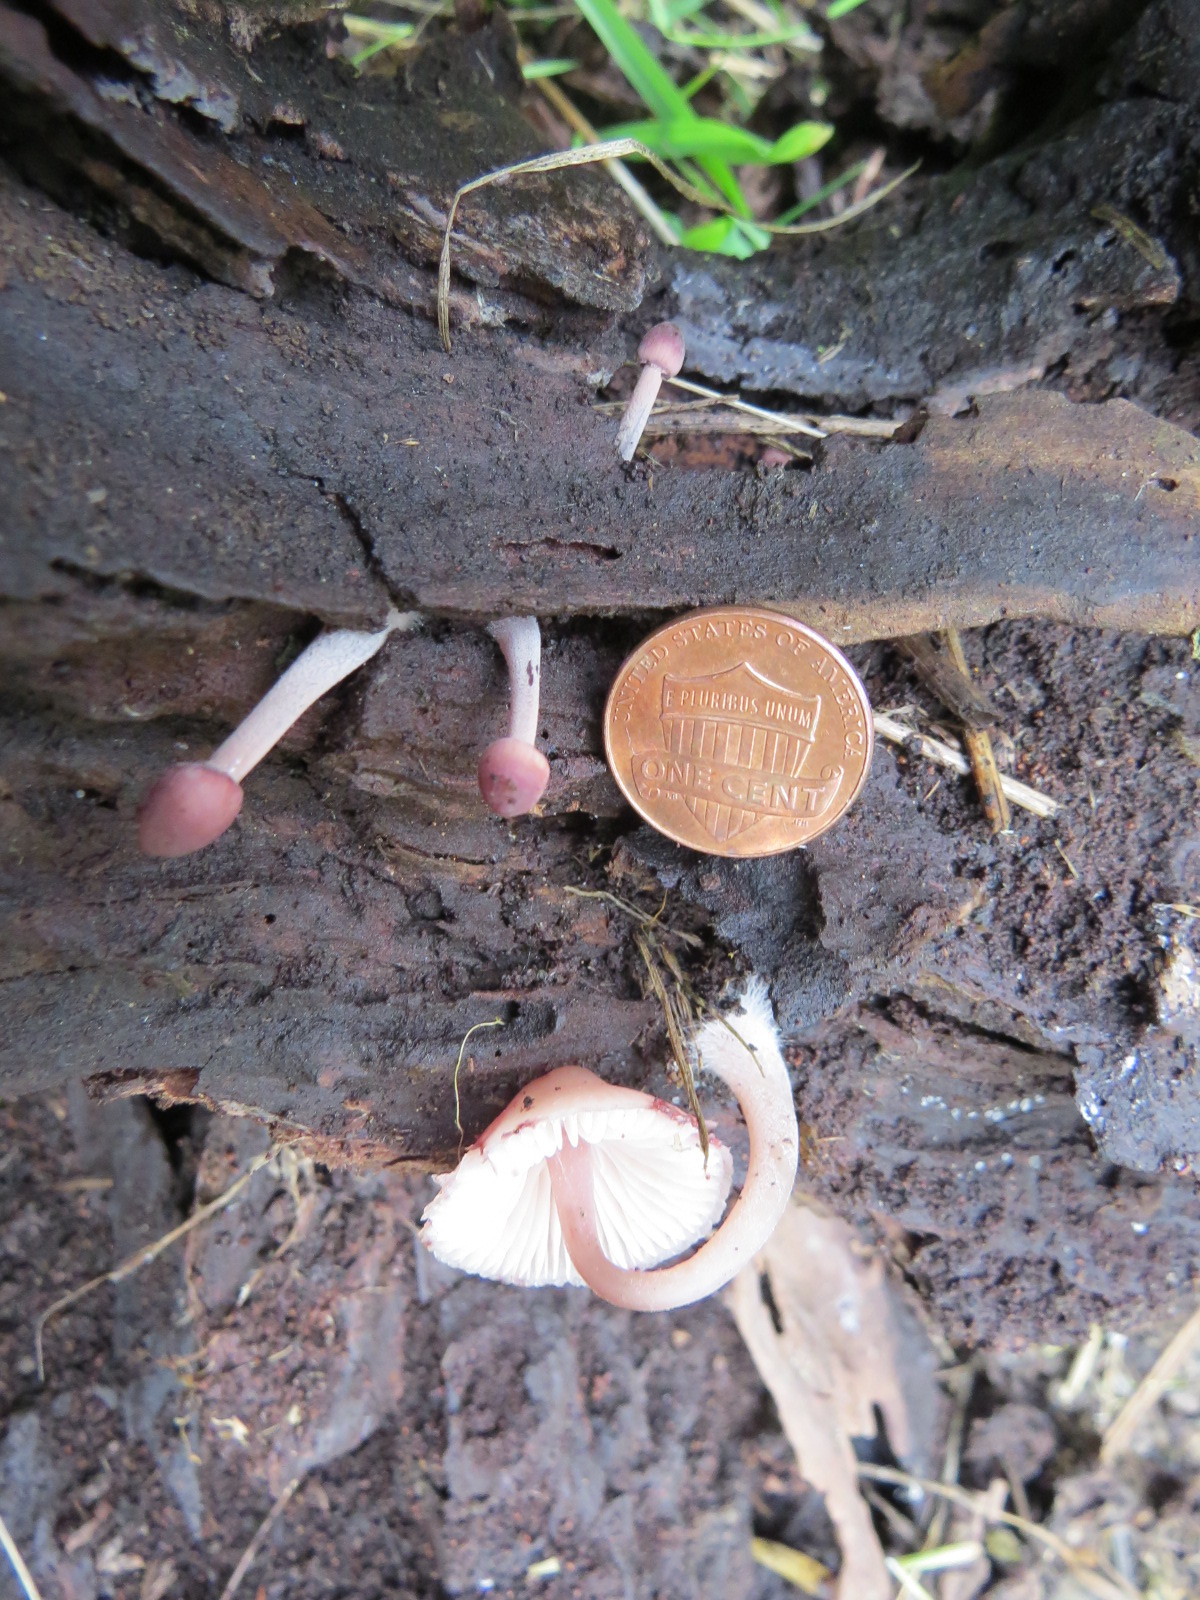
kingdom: Fungi
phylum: Basidiomycota
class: Agaricomycetes
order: Agaricales
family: Mycenaceae
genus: Mycena
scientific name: Mycena haematopus
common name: Burgundydrop bonnet
